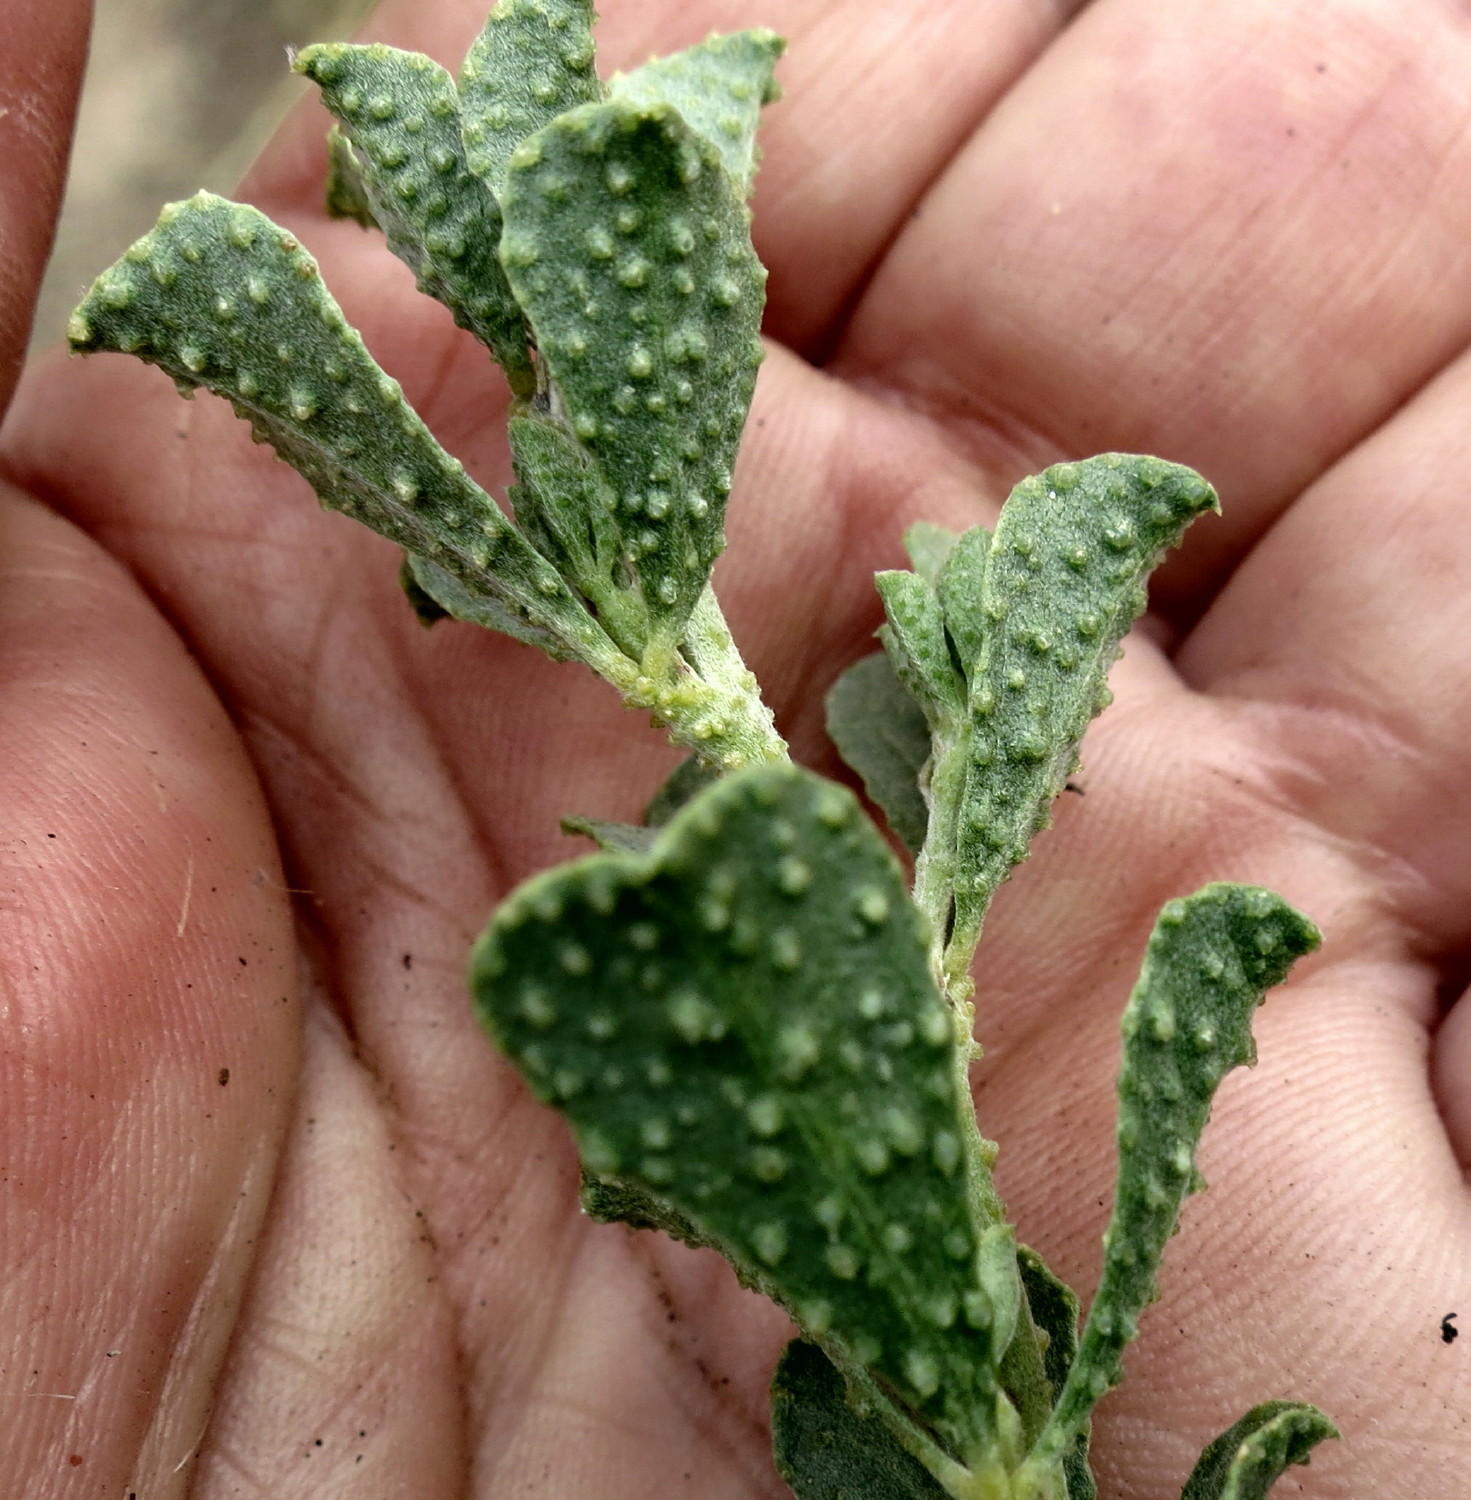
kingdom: Plantae
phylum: Tracheophyta
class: Magnoliopsida
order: Fabales
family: Fabaceae
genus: Psoralea
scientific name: Psoralea velutina
